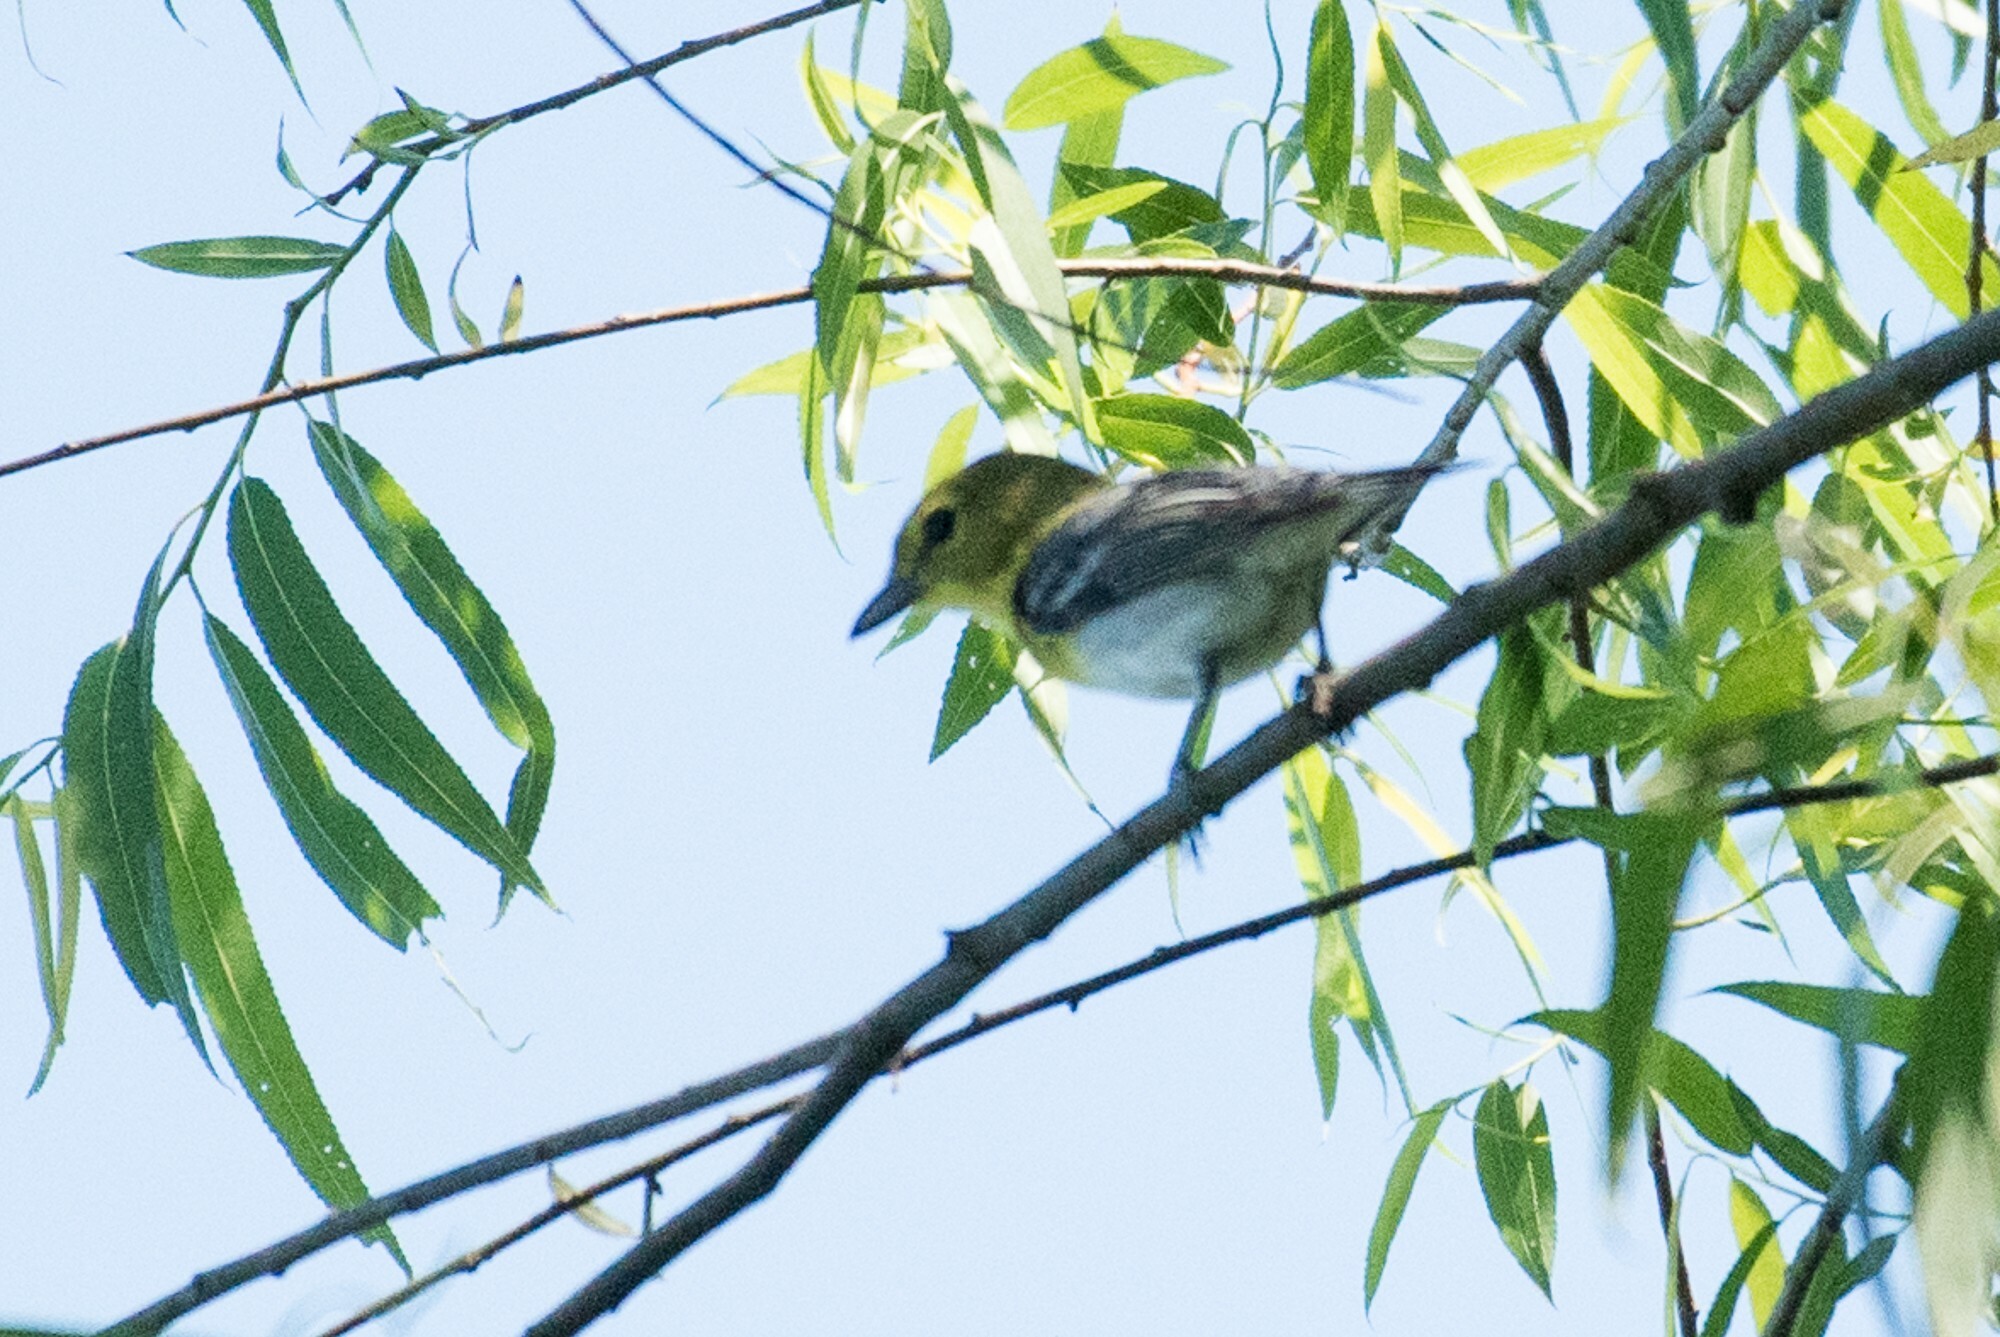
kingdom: Animalia
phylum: Chordata
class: Aves
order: Passeriformes
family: Vireonidae
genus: Vireo
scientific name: Vireo flavifrons
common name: Yellow-throated vireo
